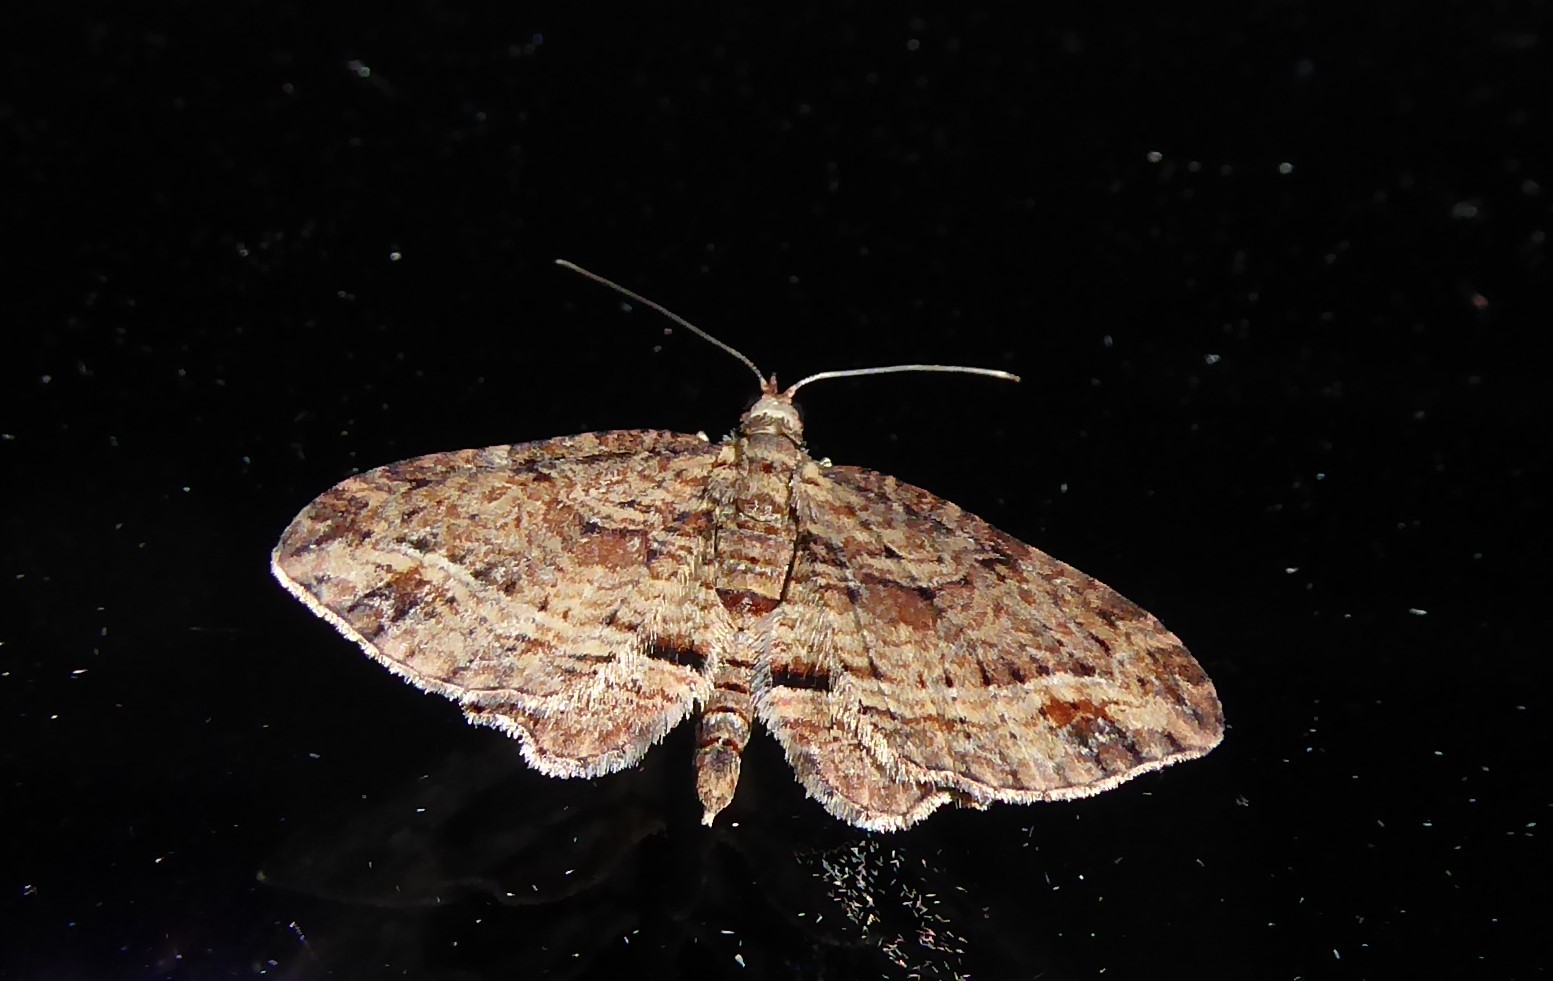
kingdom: Animalia
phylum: Arthropoda
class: Insecta
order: Lepidoptera
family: Geometridae
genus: Chloroclystis
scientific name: Chloroclystis filata
